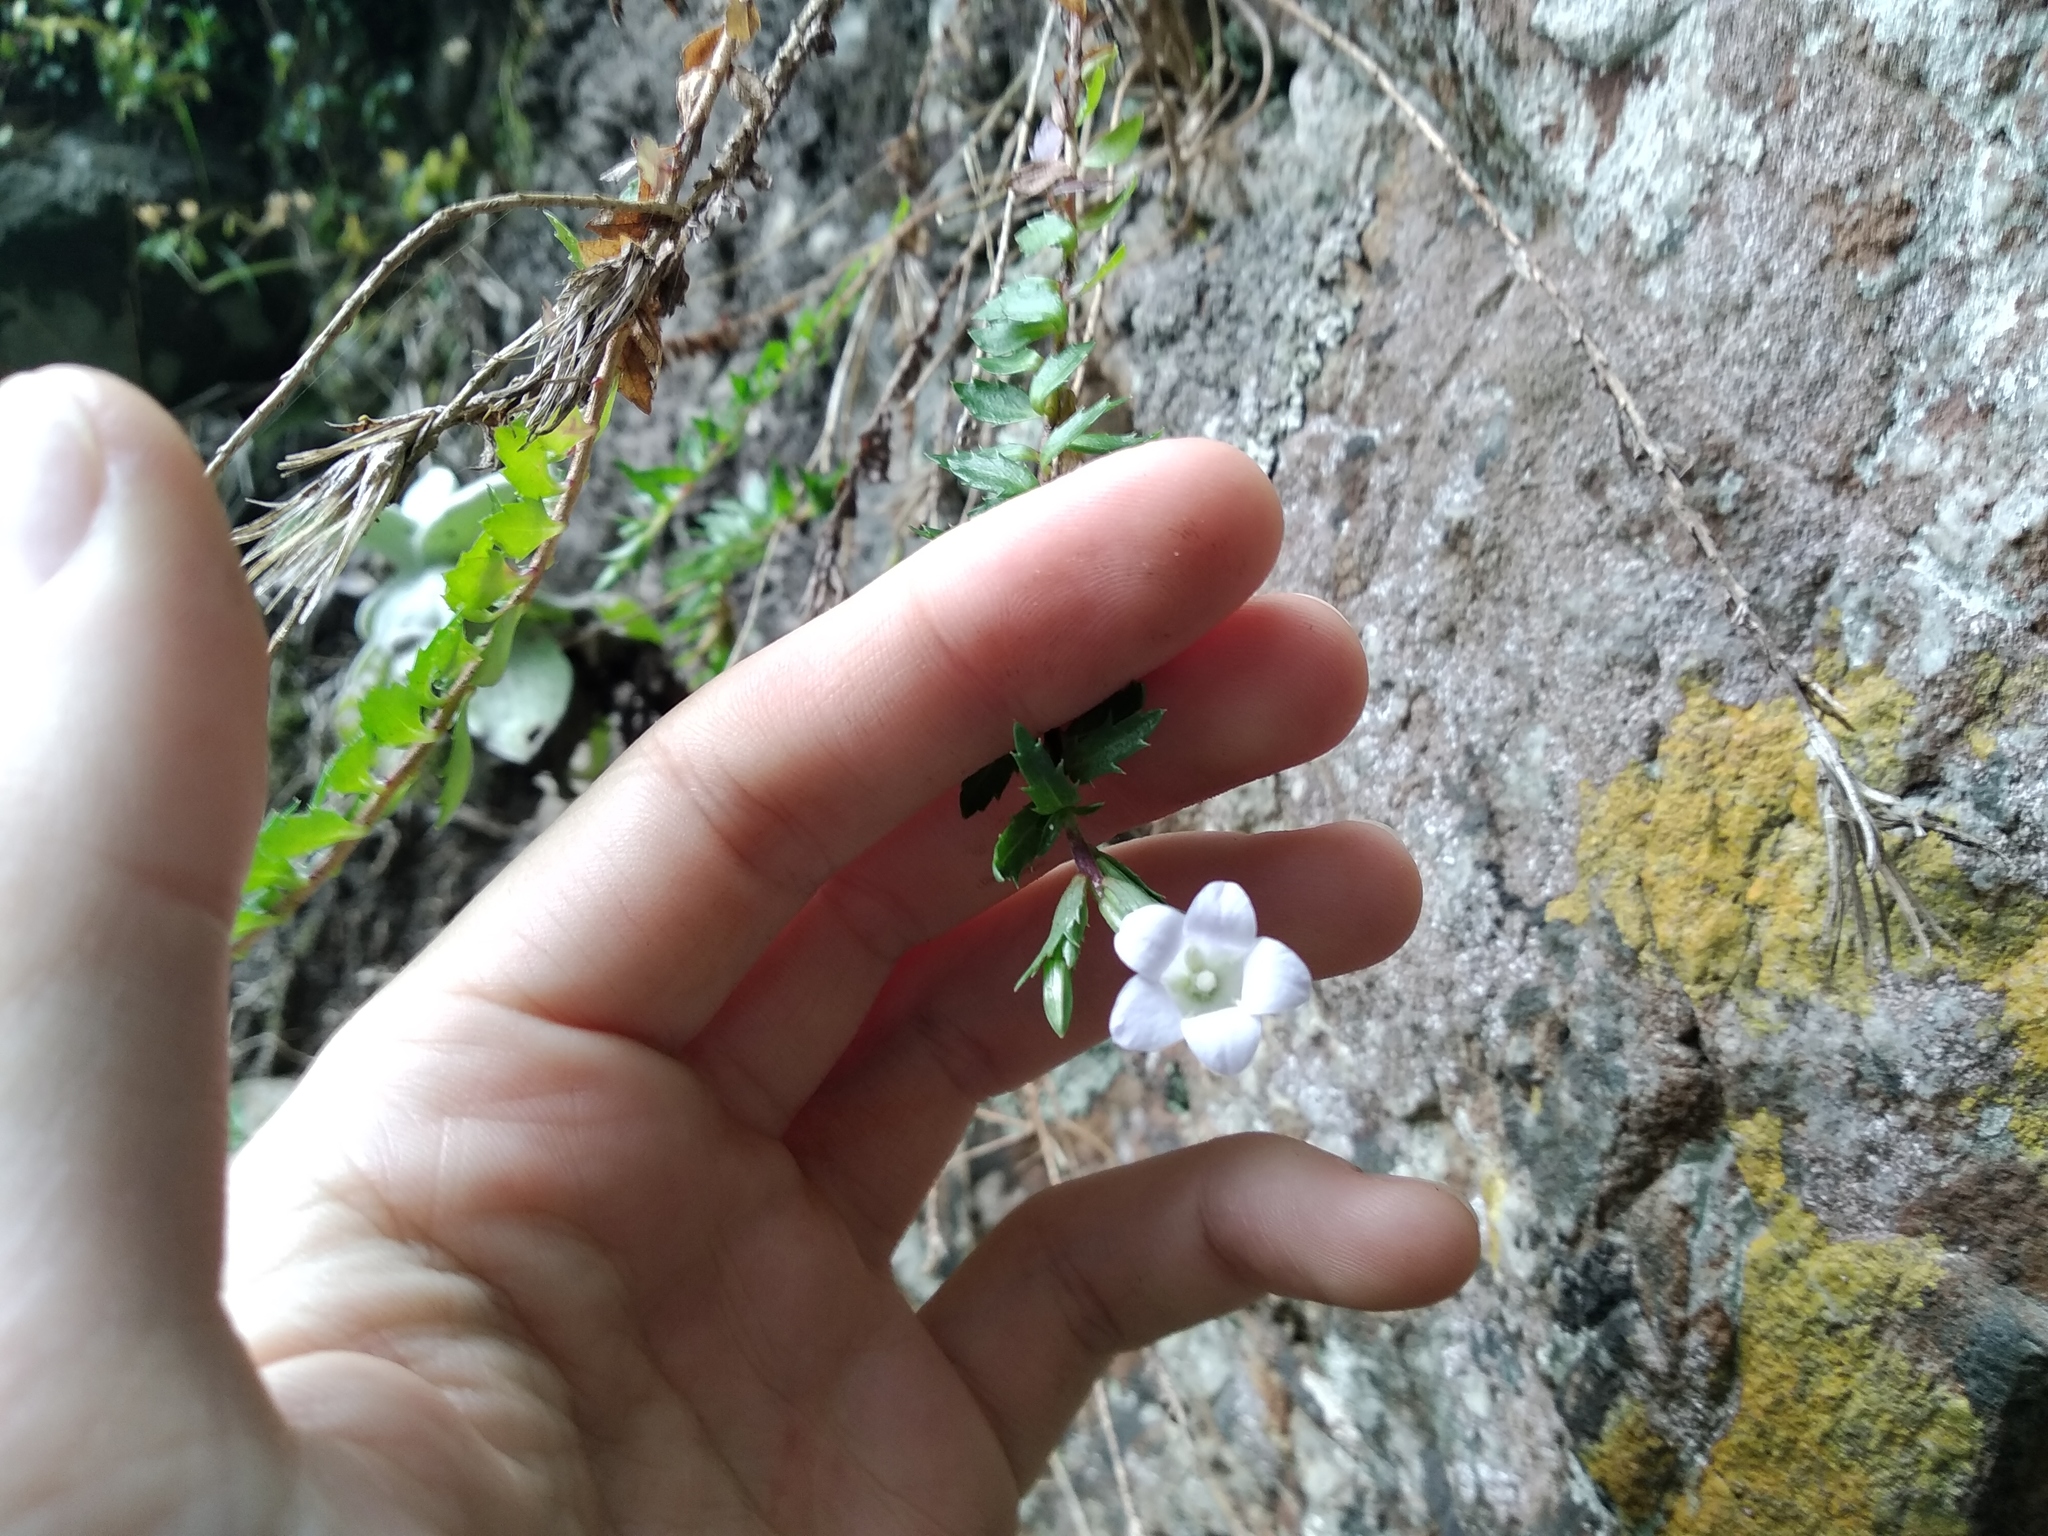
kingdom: Plantae
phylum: Tracheophyta
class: Magnoliopsida
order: Asterales
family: Campanulaceae
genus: Prismatocarpus
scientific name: Prismatocarpus nitidus
